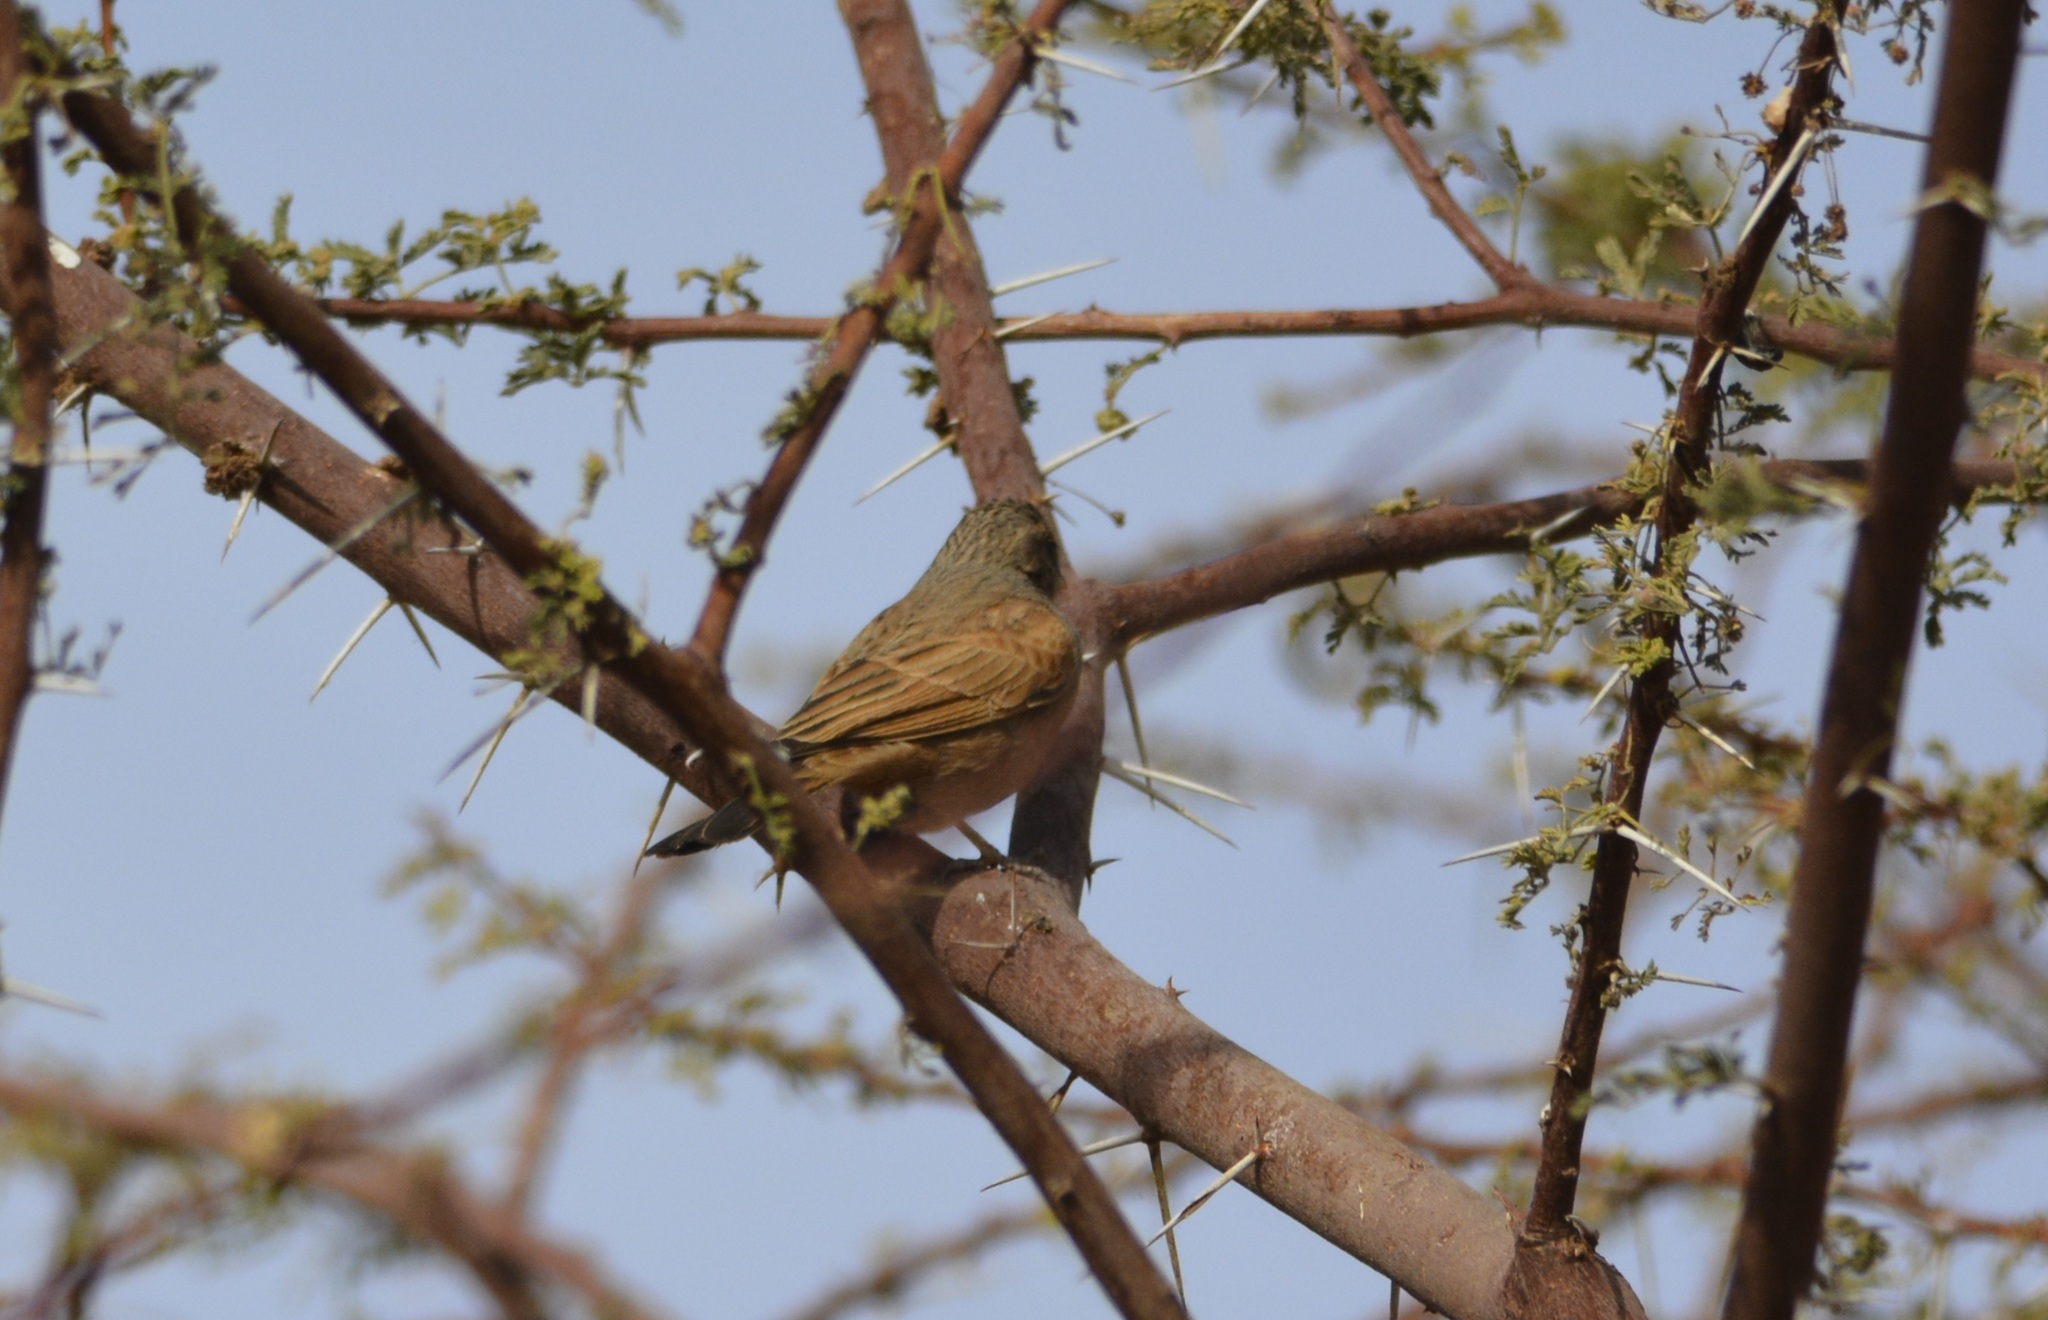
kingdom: Animalia
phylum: Chordata
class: Aves
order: Passeriformes
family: Emberizidae
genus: Emberiza
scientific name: Emberiza sahari
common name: House bunting
